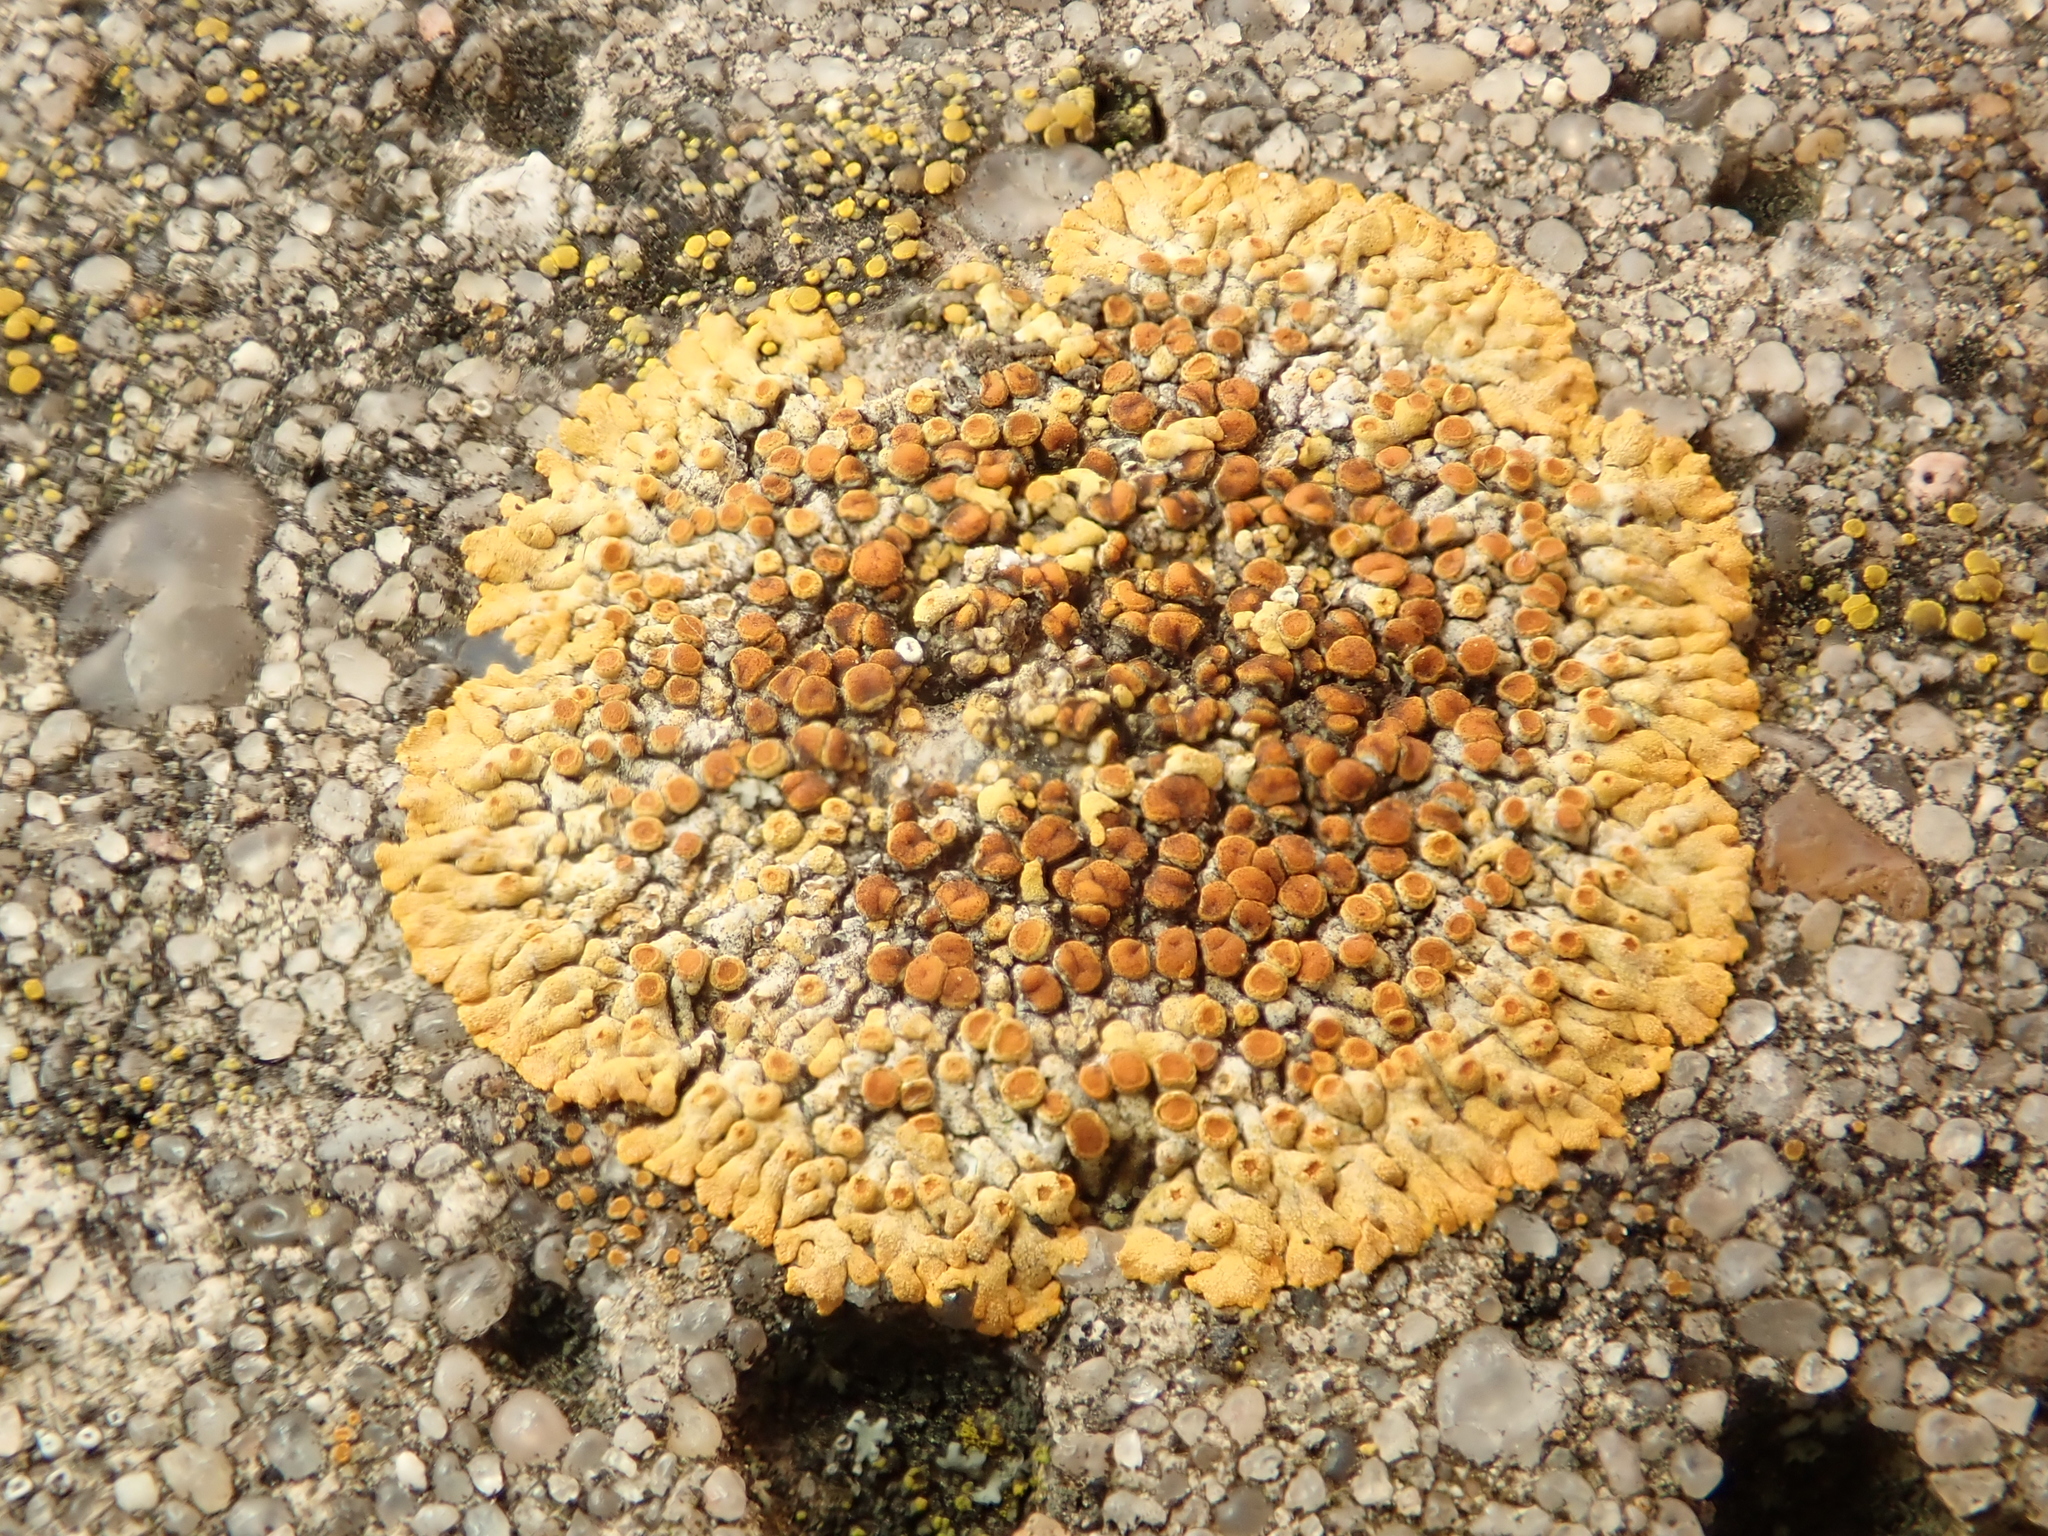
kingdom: Fungi
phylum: Ascomycota
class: Lecanoromycetes
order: Teloschistales
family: Teloschistaceae
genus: Calogaya
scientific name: Calogaya pusilla
